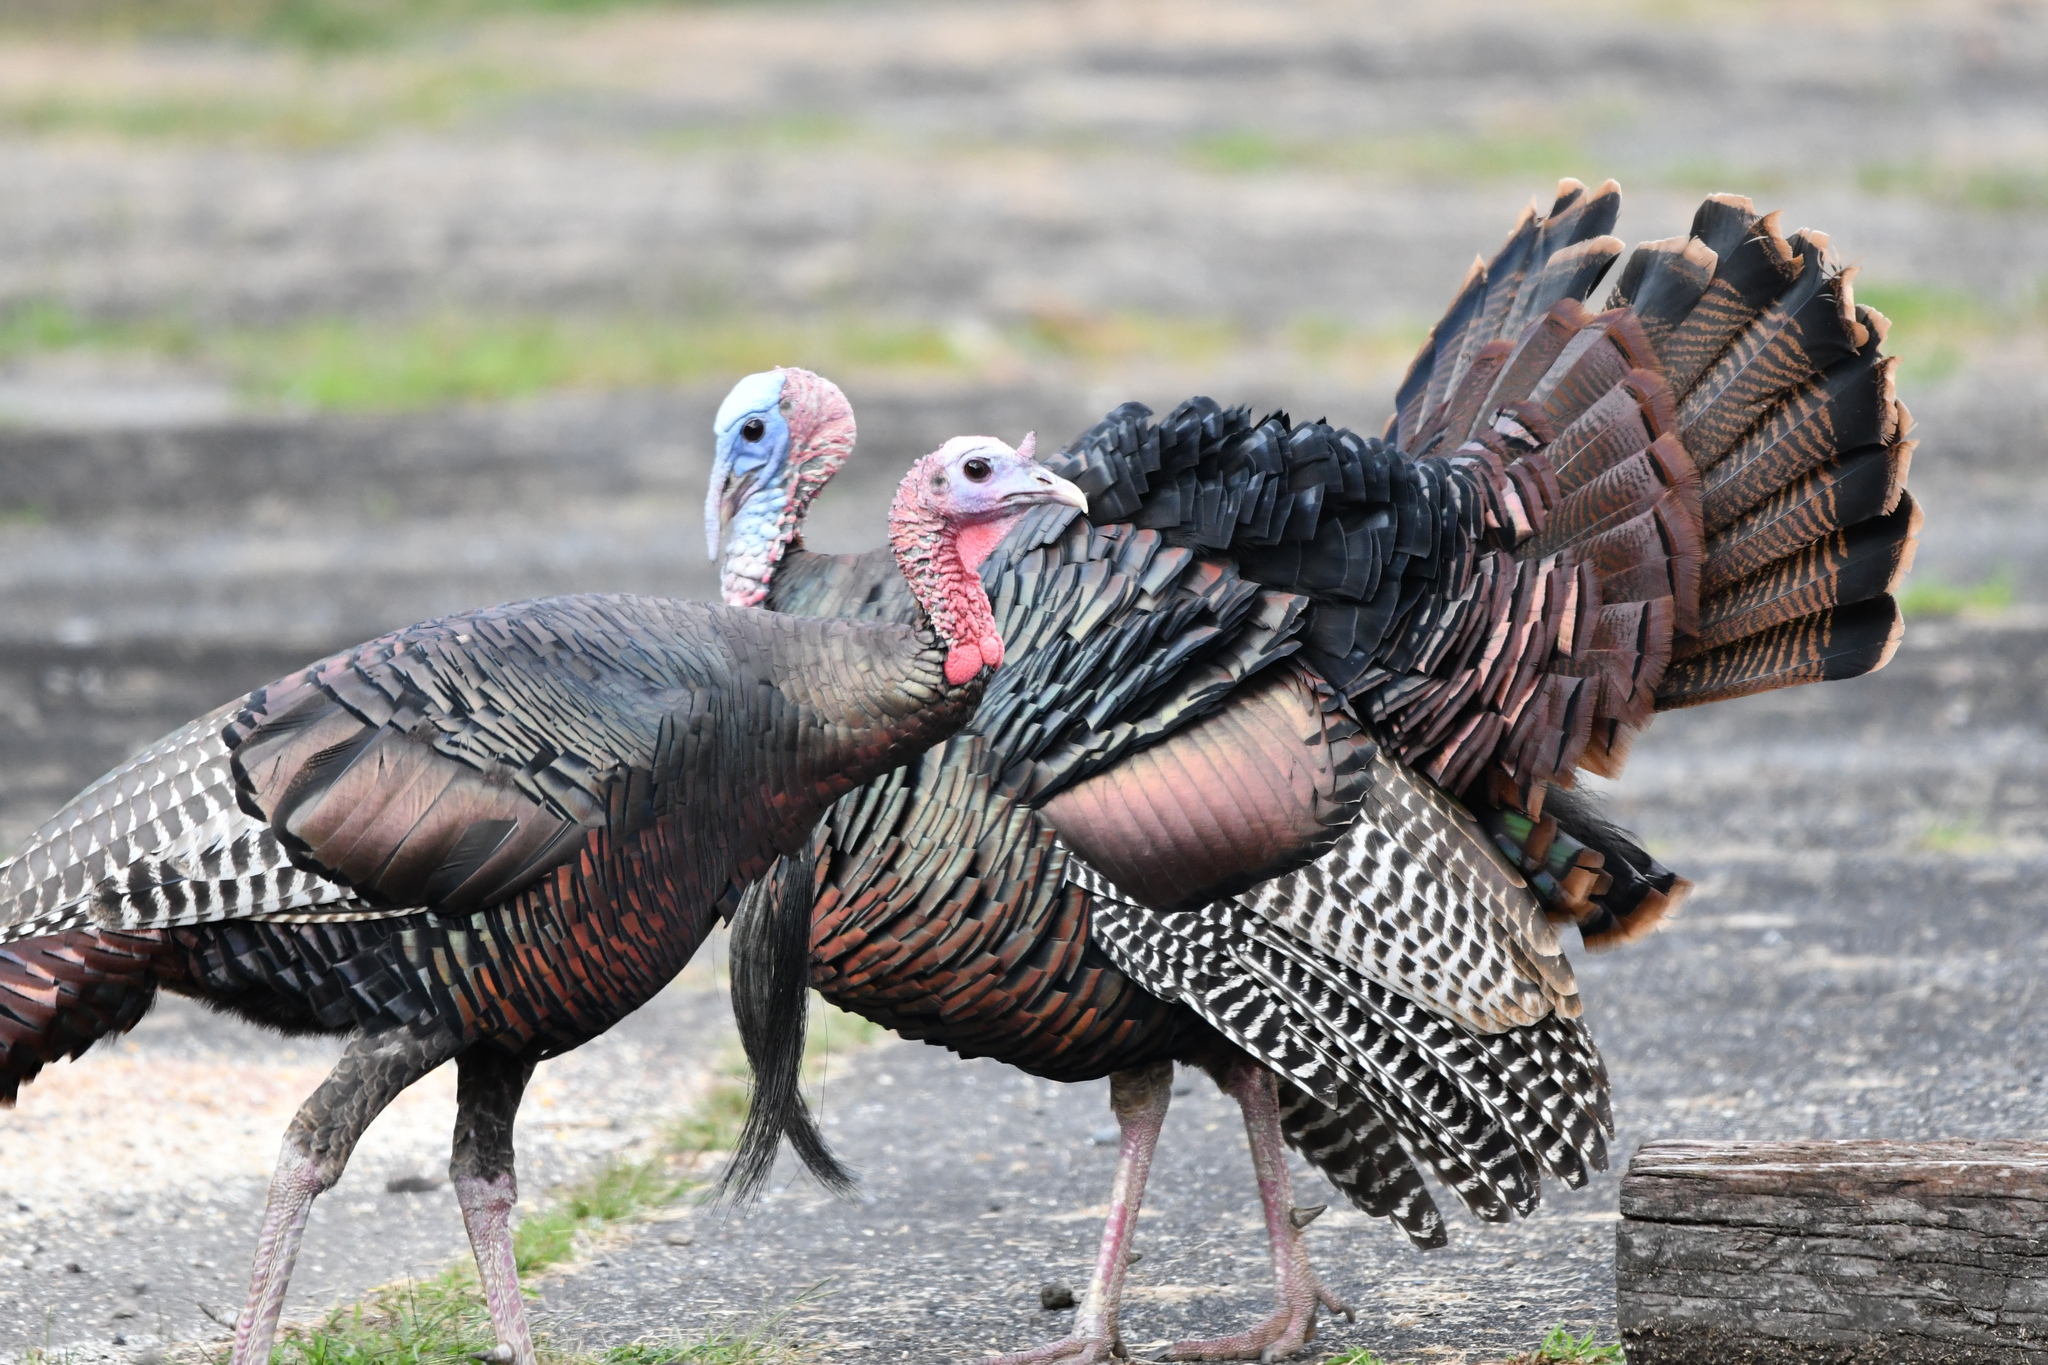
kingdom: Animalia
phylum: Chordata
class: Aves
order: Galliformes
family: Phasianidae
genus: Meleagris
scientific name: Meleagris gallopavo
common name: Wild turkey
